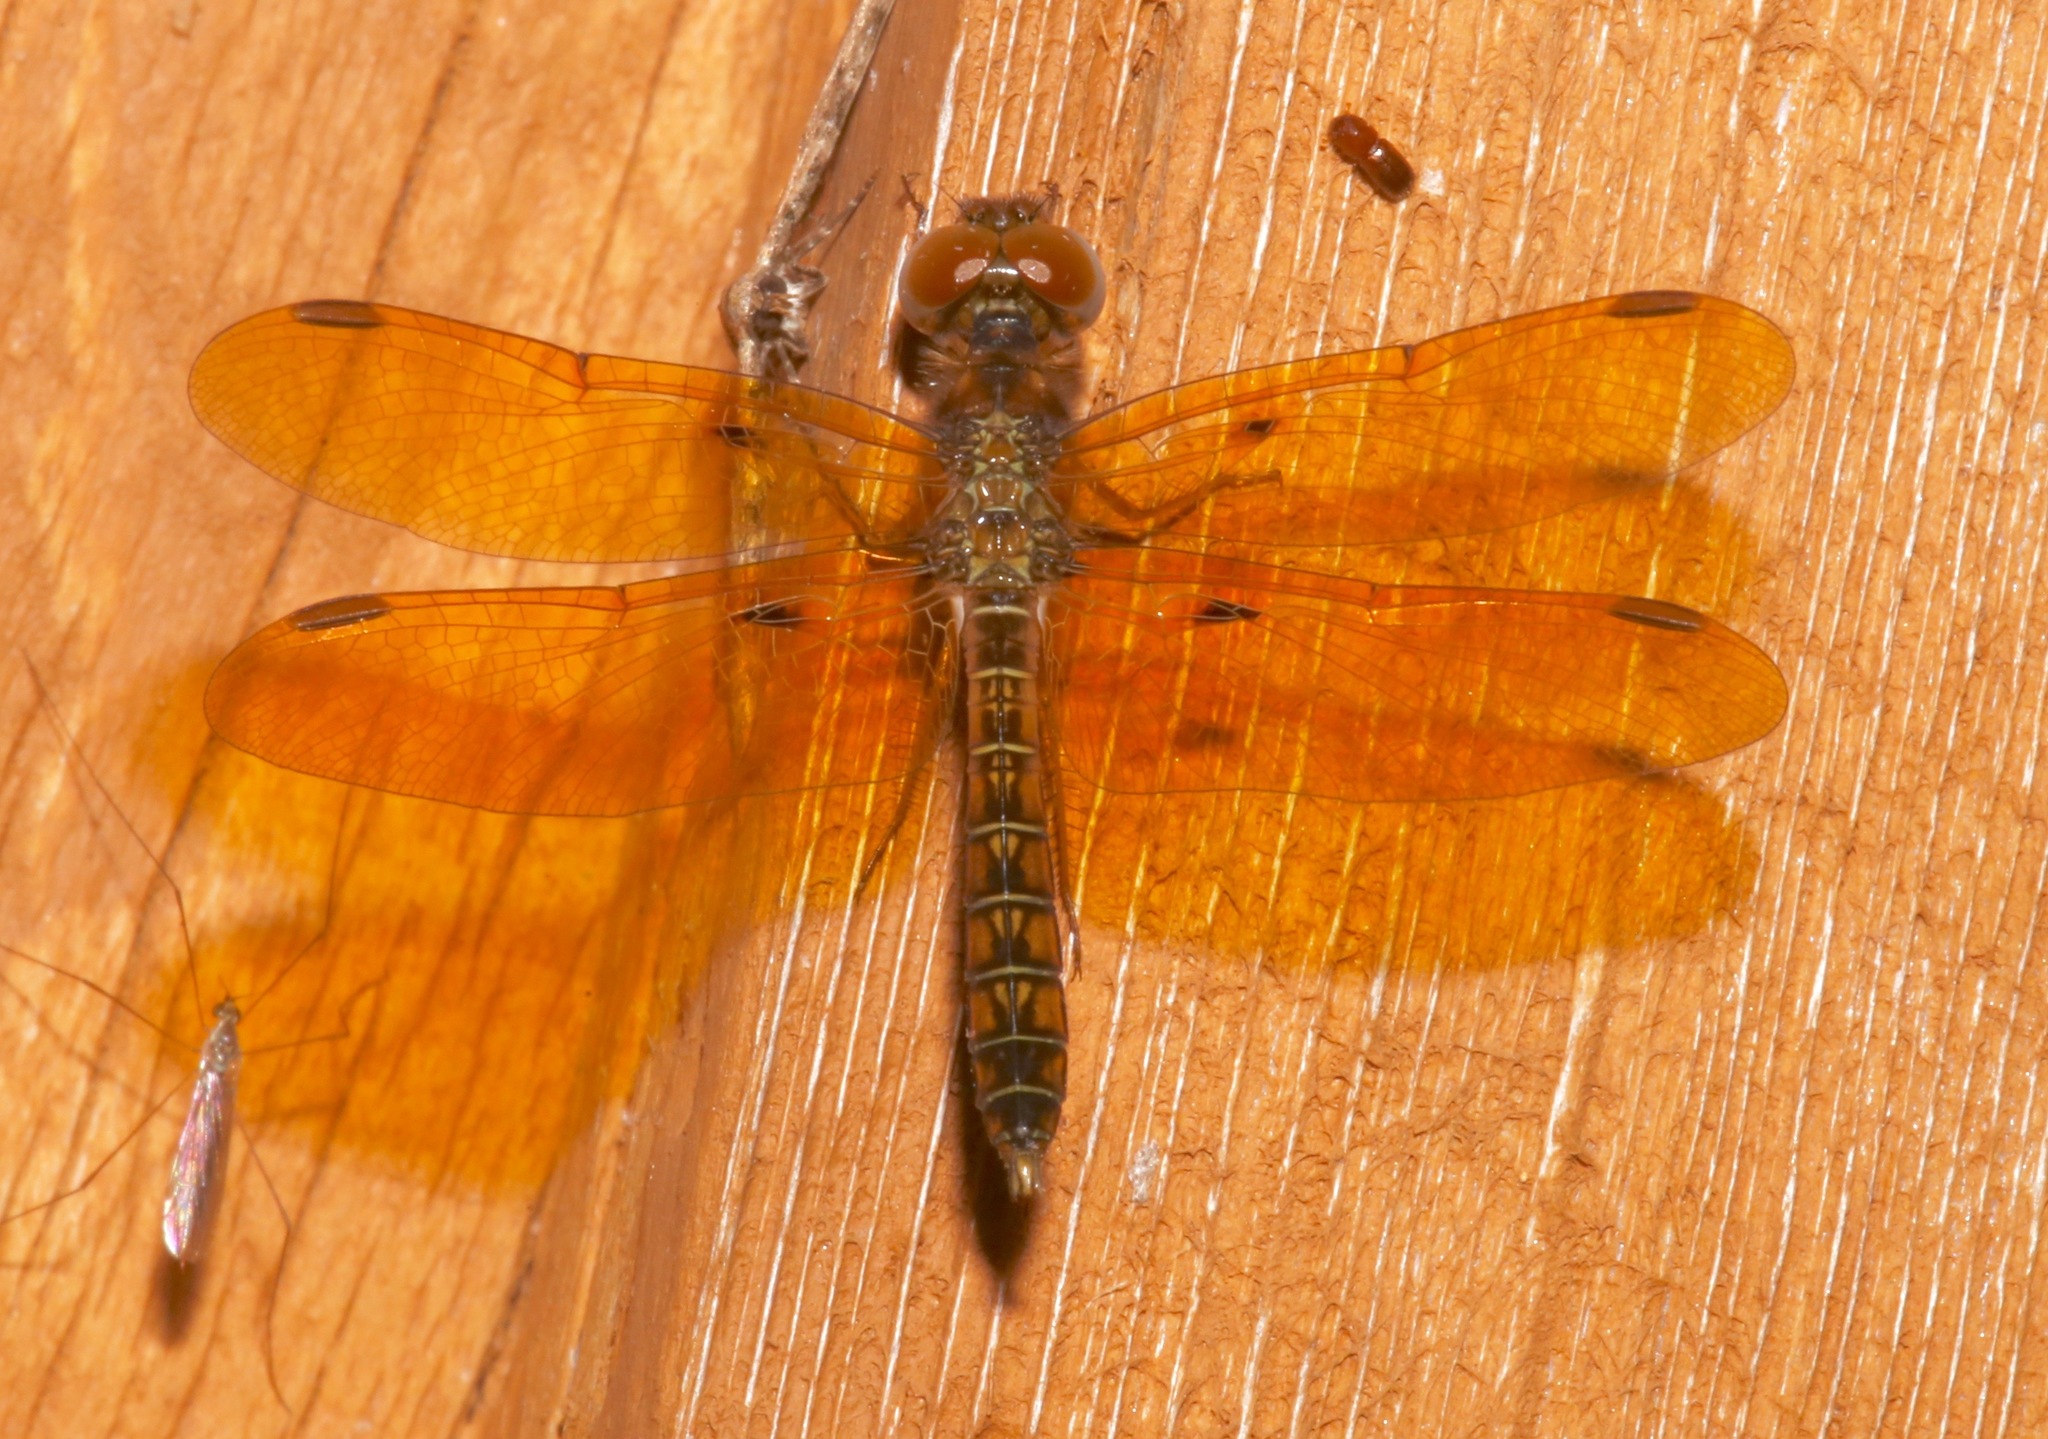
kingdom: Animalia
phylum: Arthropoda
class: Insecta
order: Odonata
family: Libellulidae
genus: Perithemis
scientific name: Perithemis tenera
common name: Eastern amberwing
